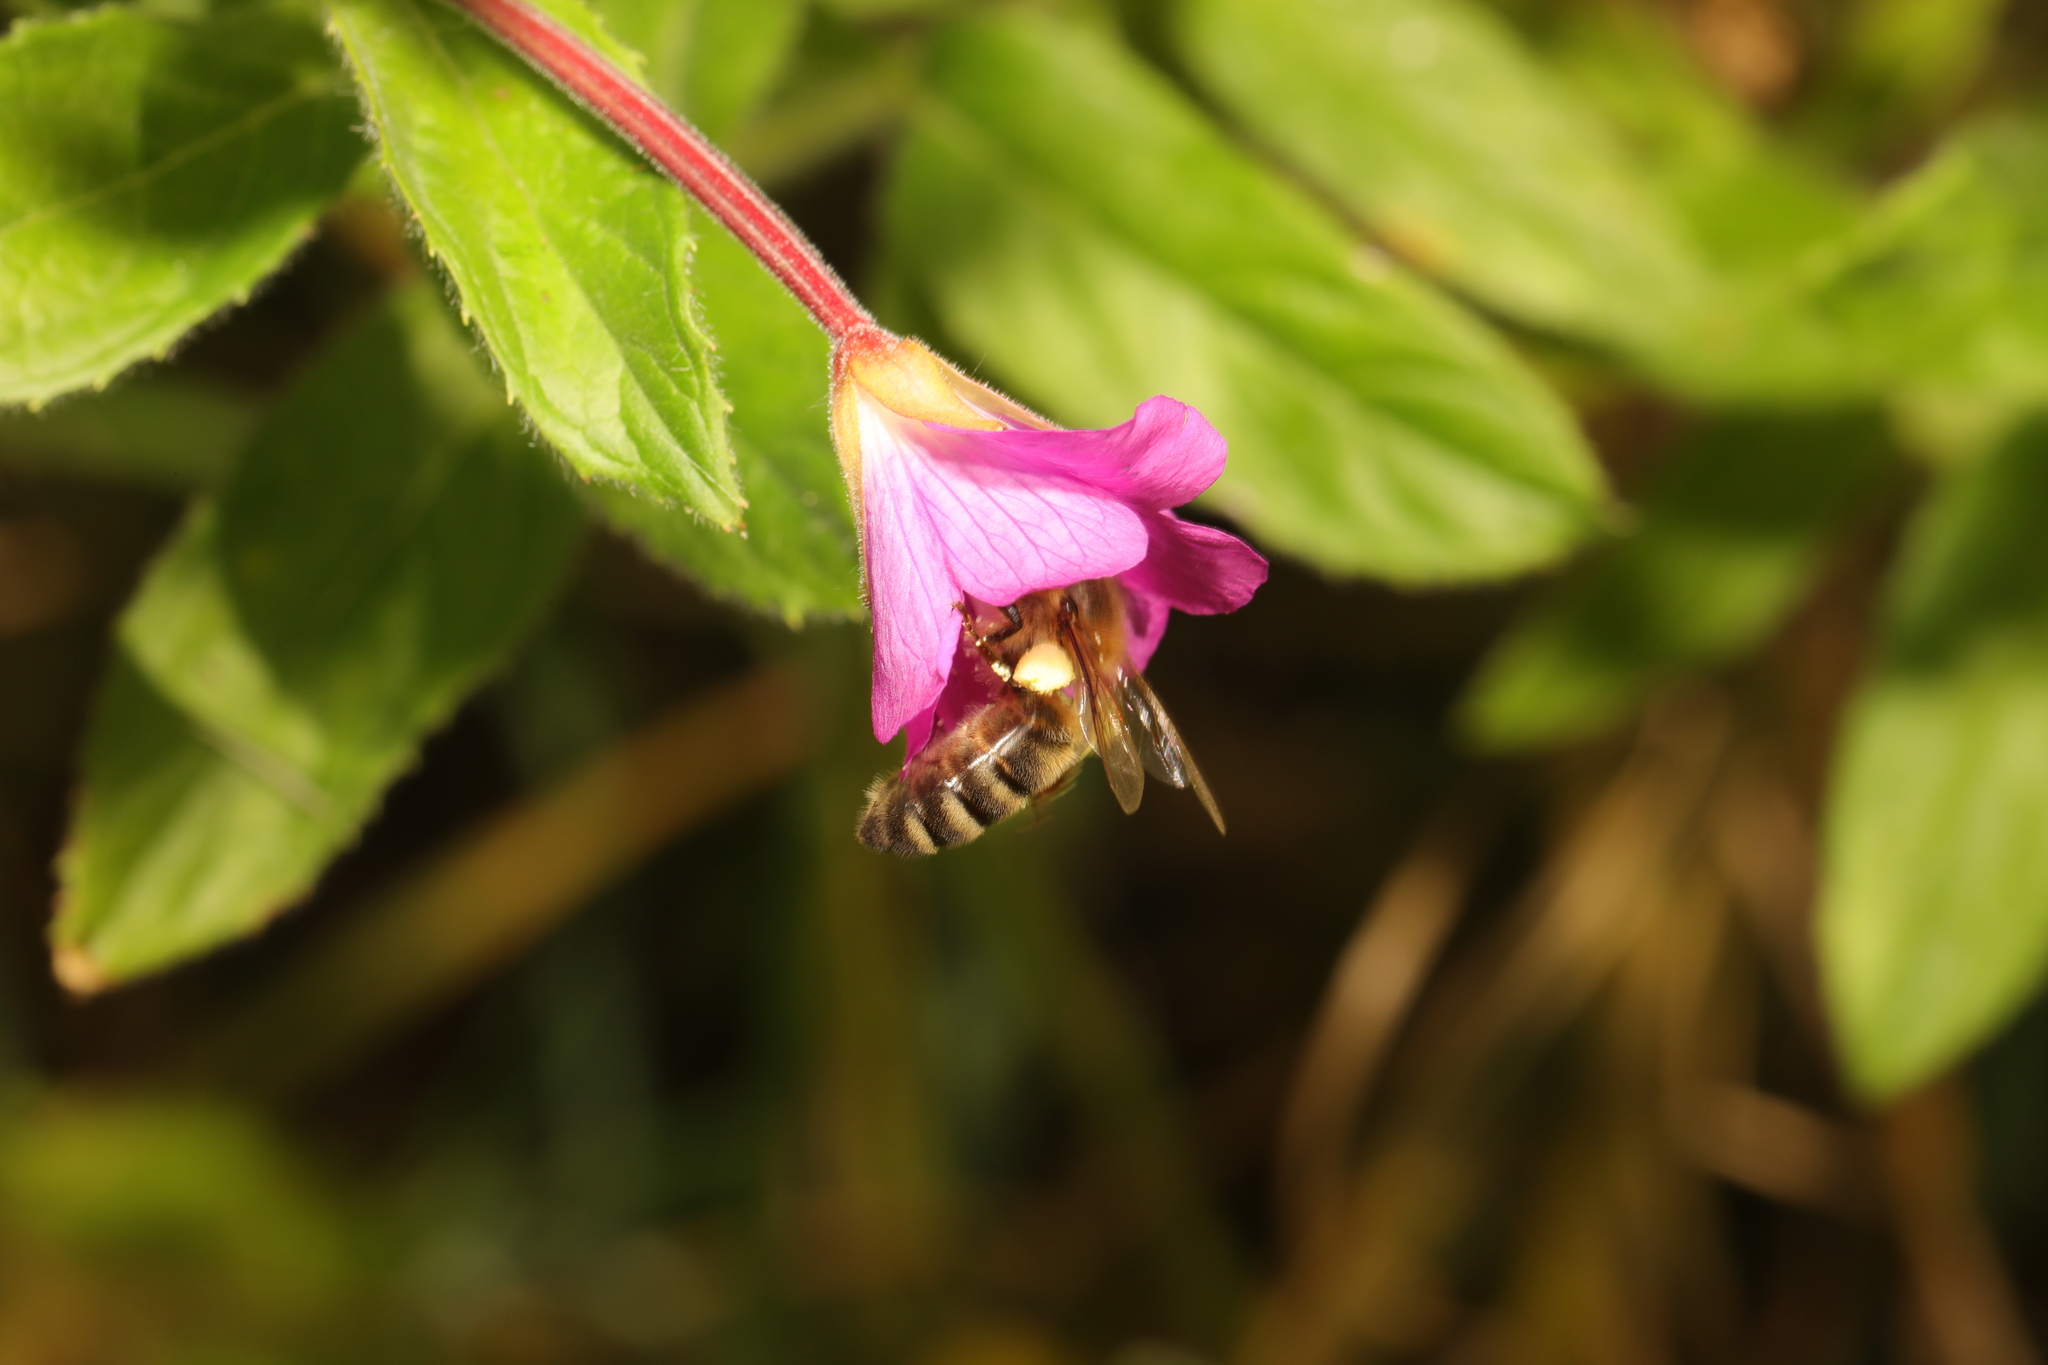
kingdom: Animalia
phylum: Arthropoda
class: Insecta
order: Hymenoptera
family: Apidae
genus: Apis
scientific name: Apis mellifera
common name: Honey bee
